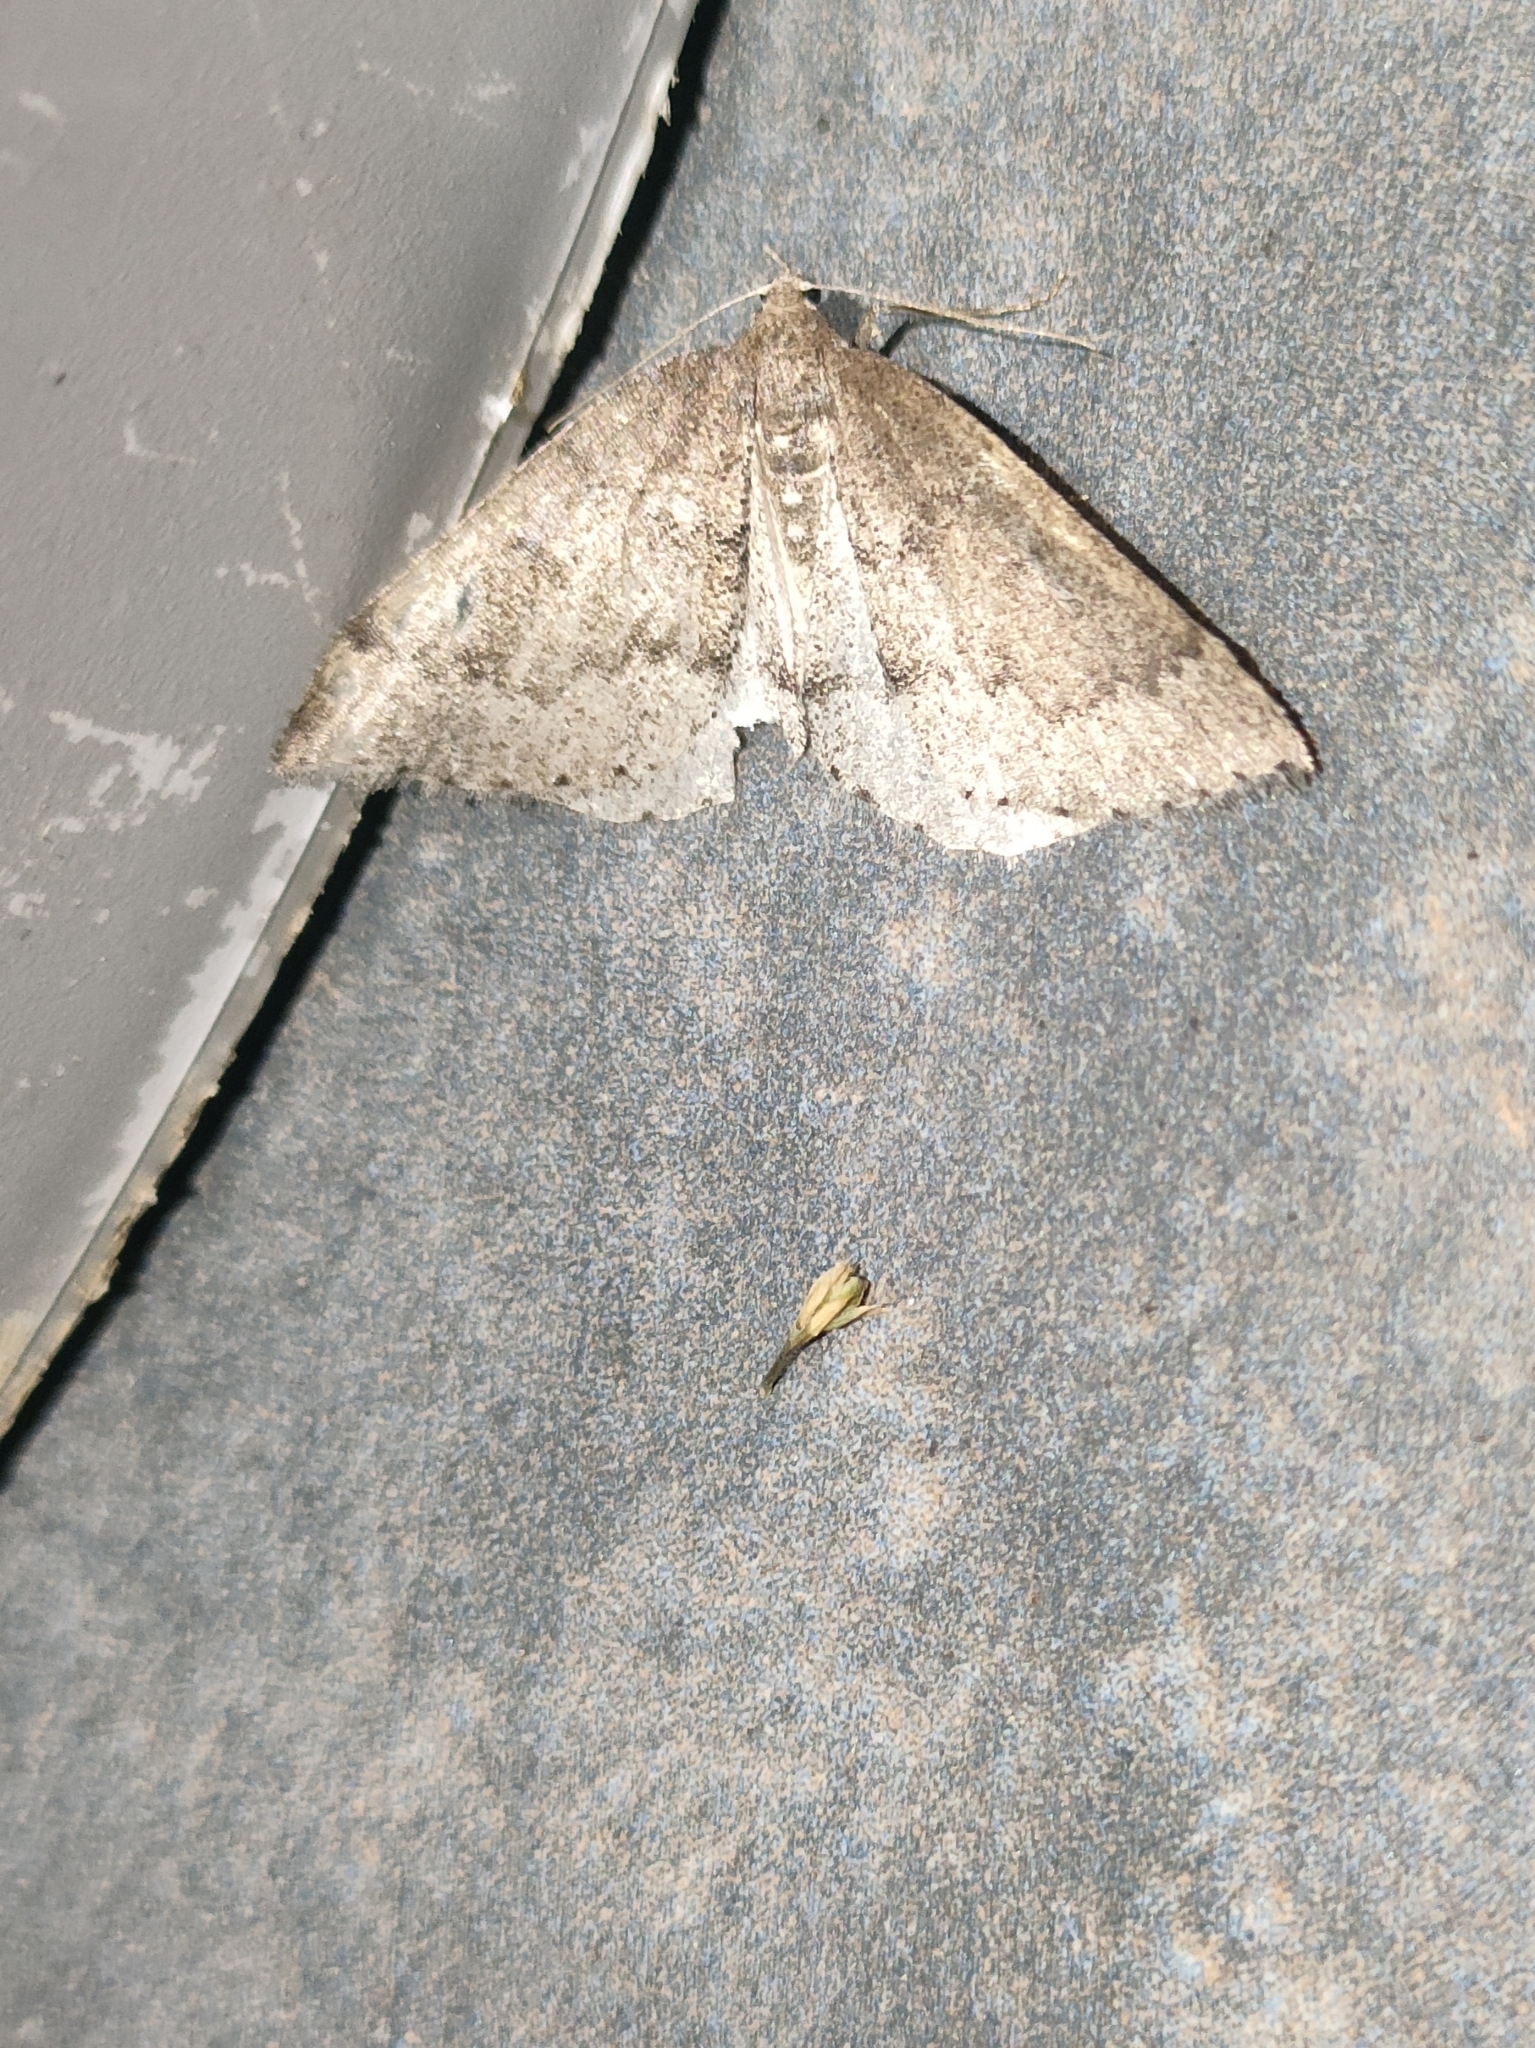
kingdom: Animalia
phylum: Arthropoda
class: Insecta
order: Lepidoptera
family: Geometridae
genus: Aleucis
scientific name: Aleucis distinctata
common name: Sloe carpet
